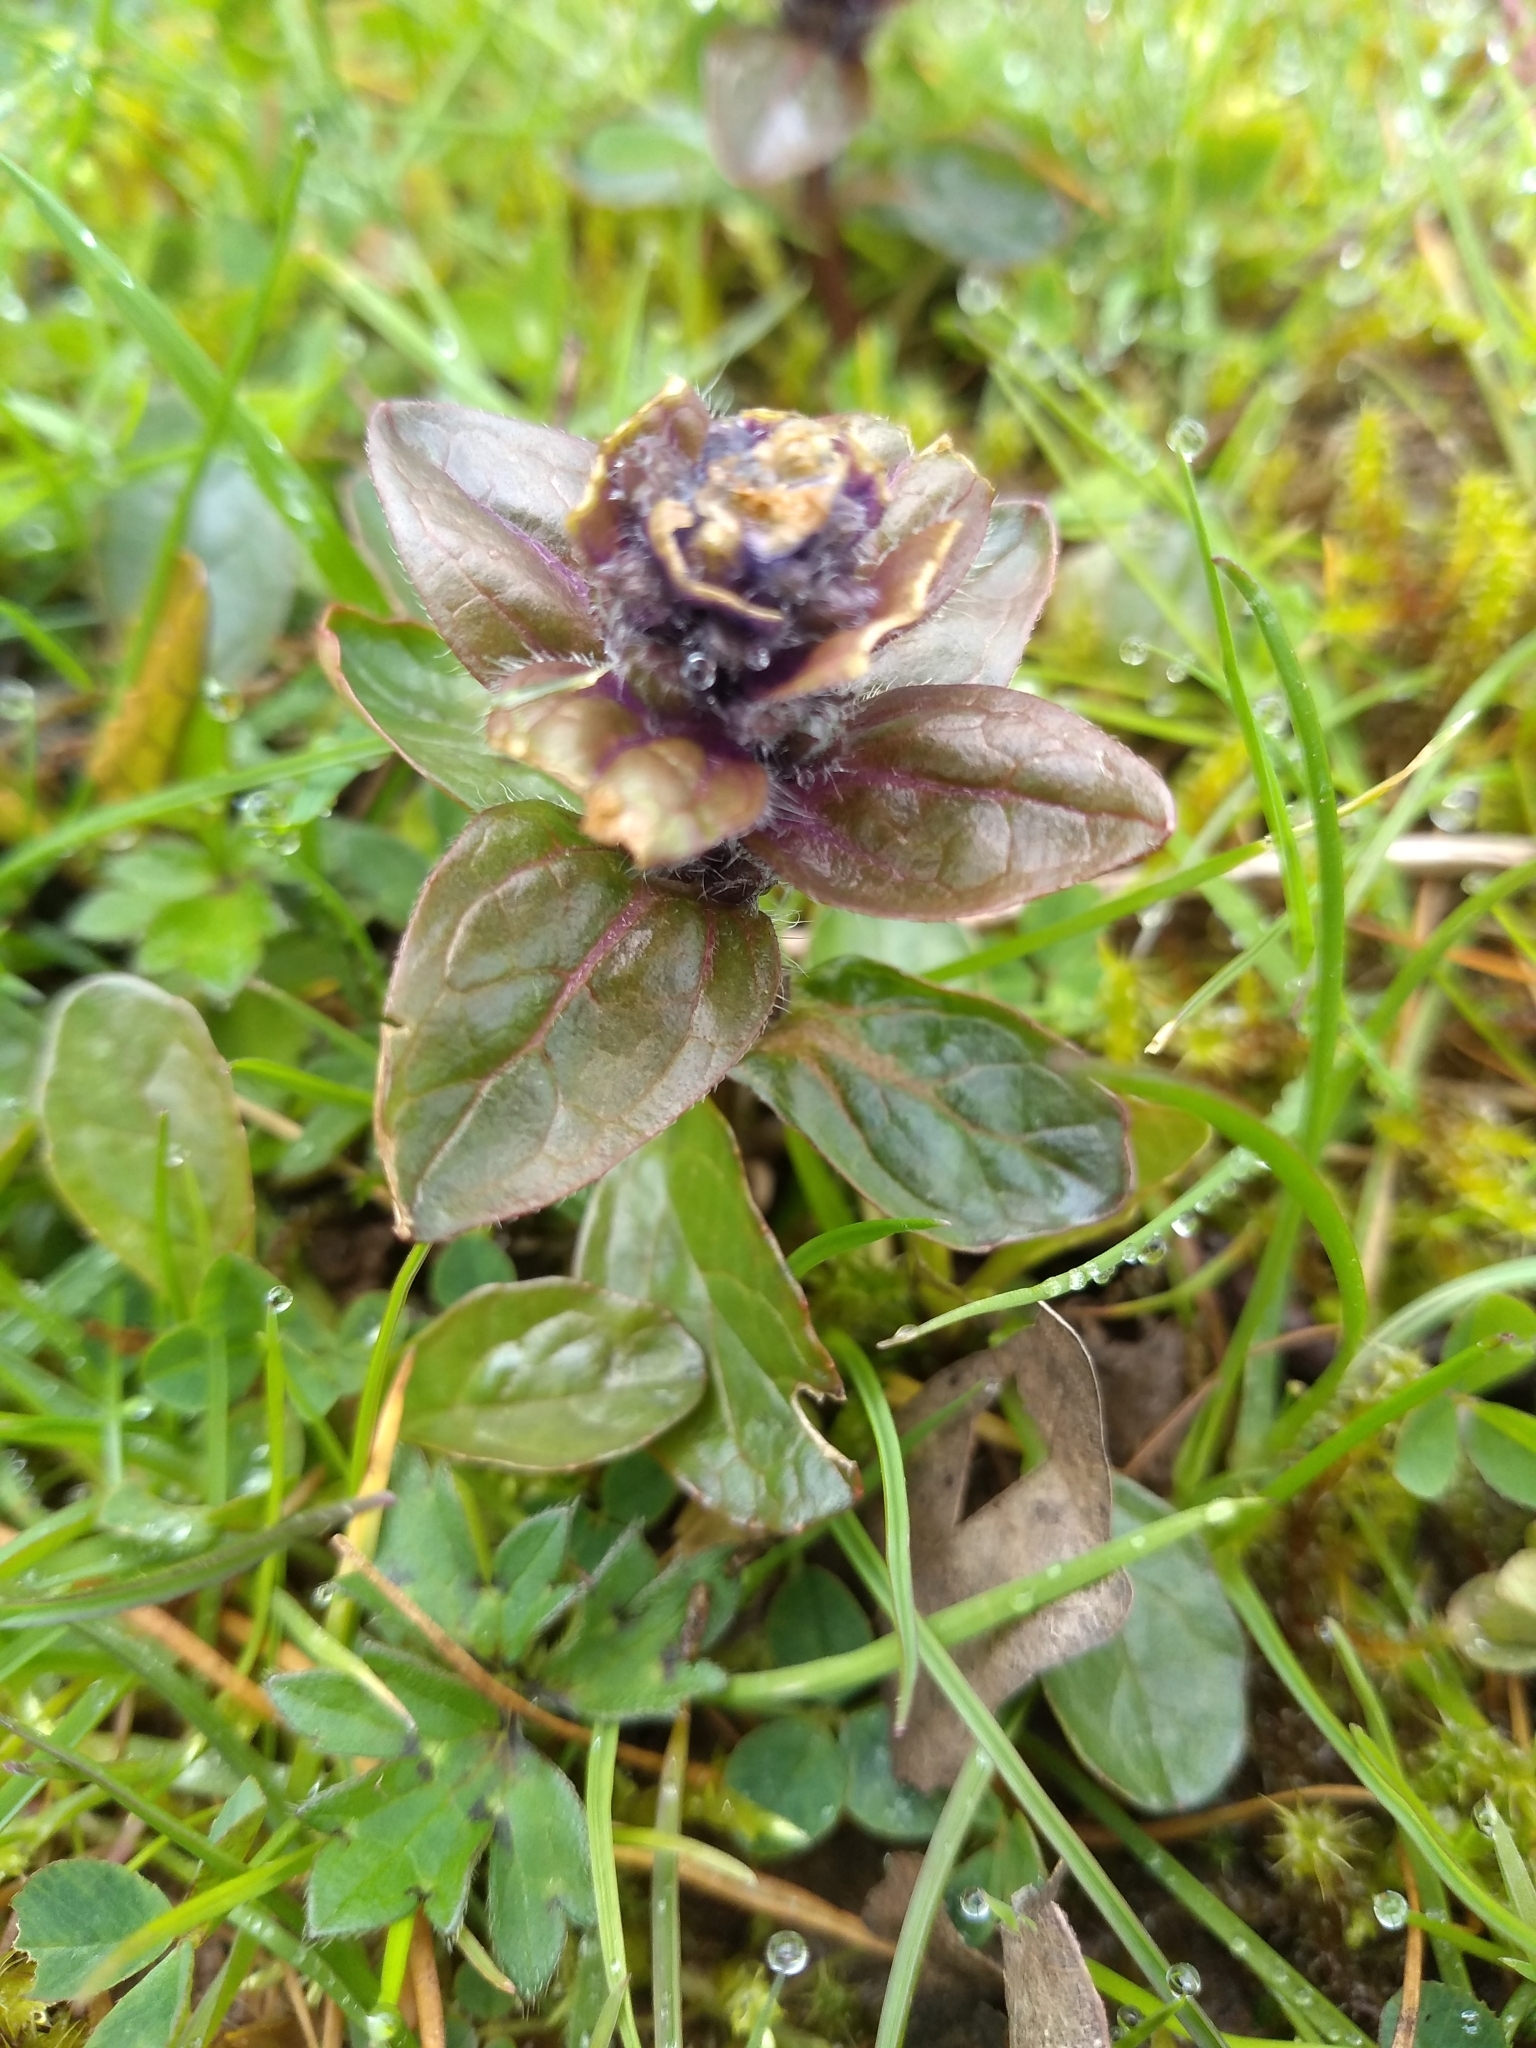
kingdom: Plantae
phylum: Tracheophyta
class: Magnoliopsida
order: Lamiales
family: Lamiaceae
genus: Ajuga
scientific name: Ajuga reptans
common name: Bugle
